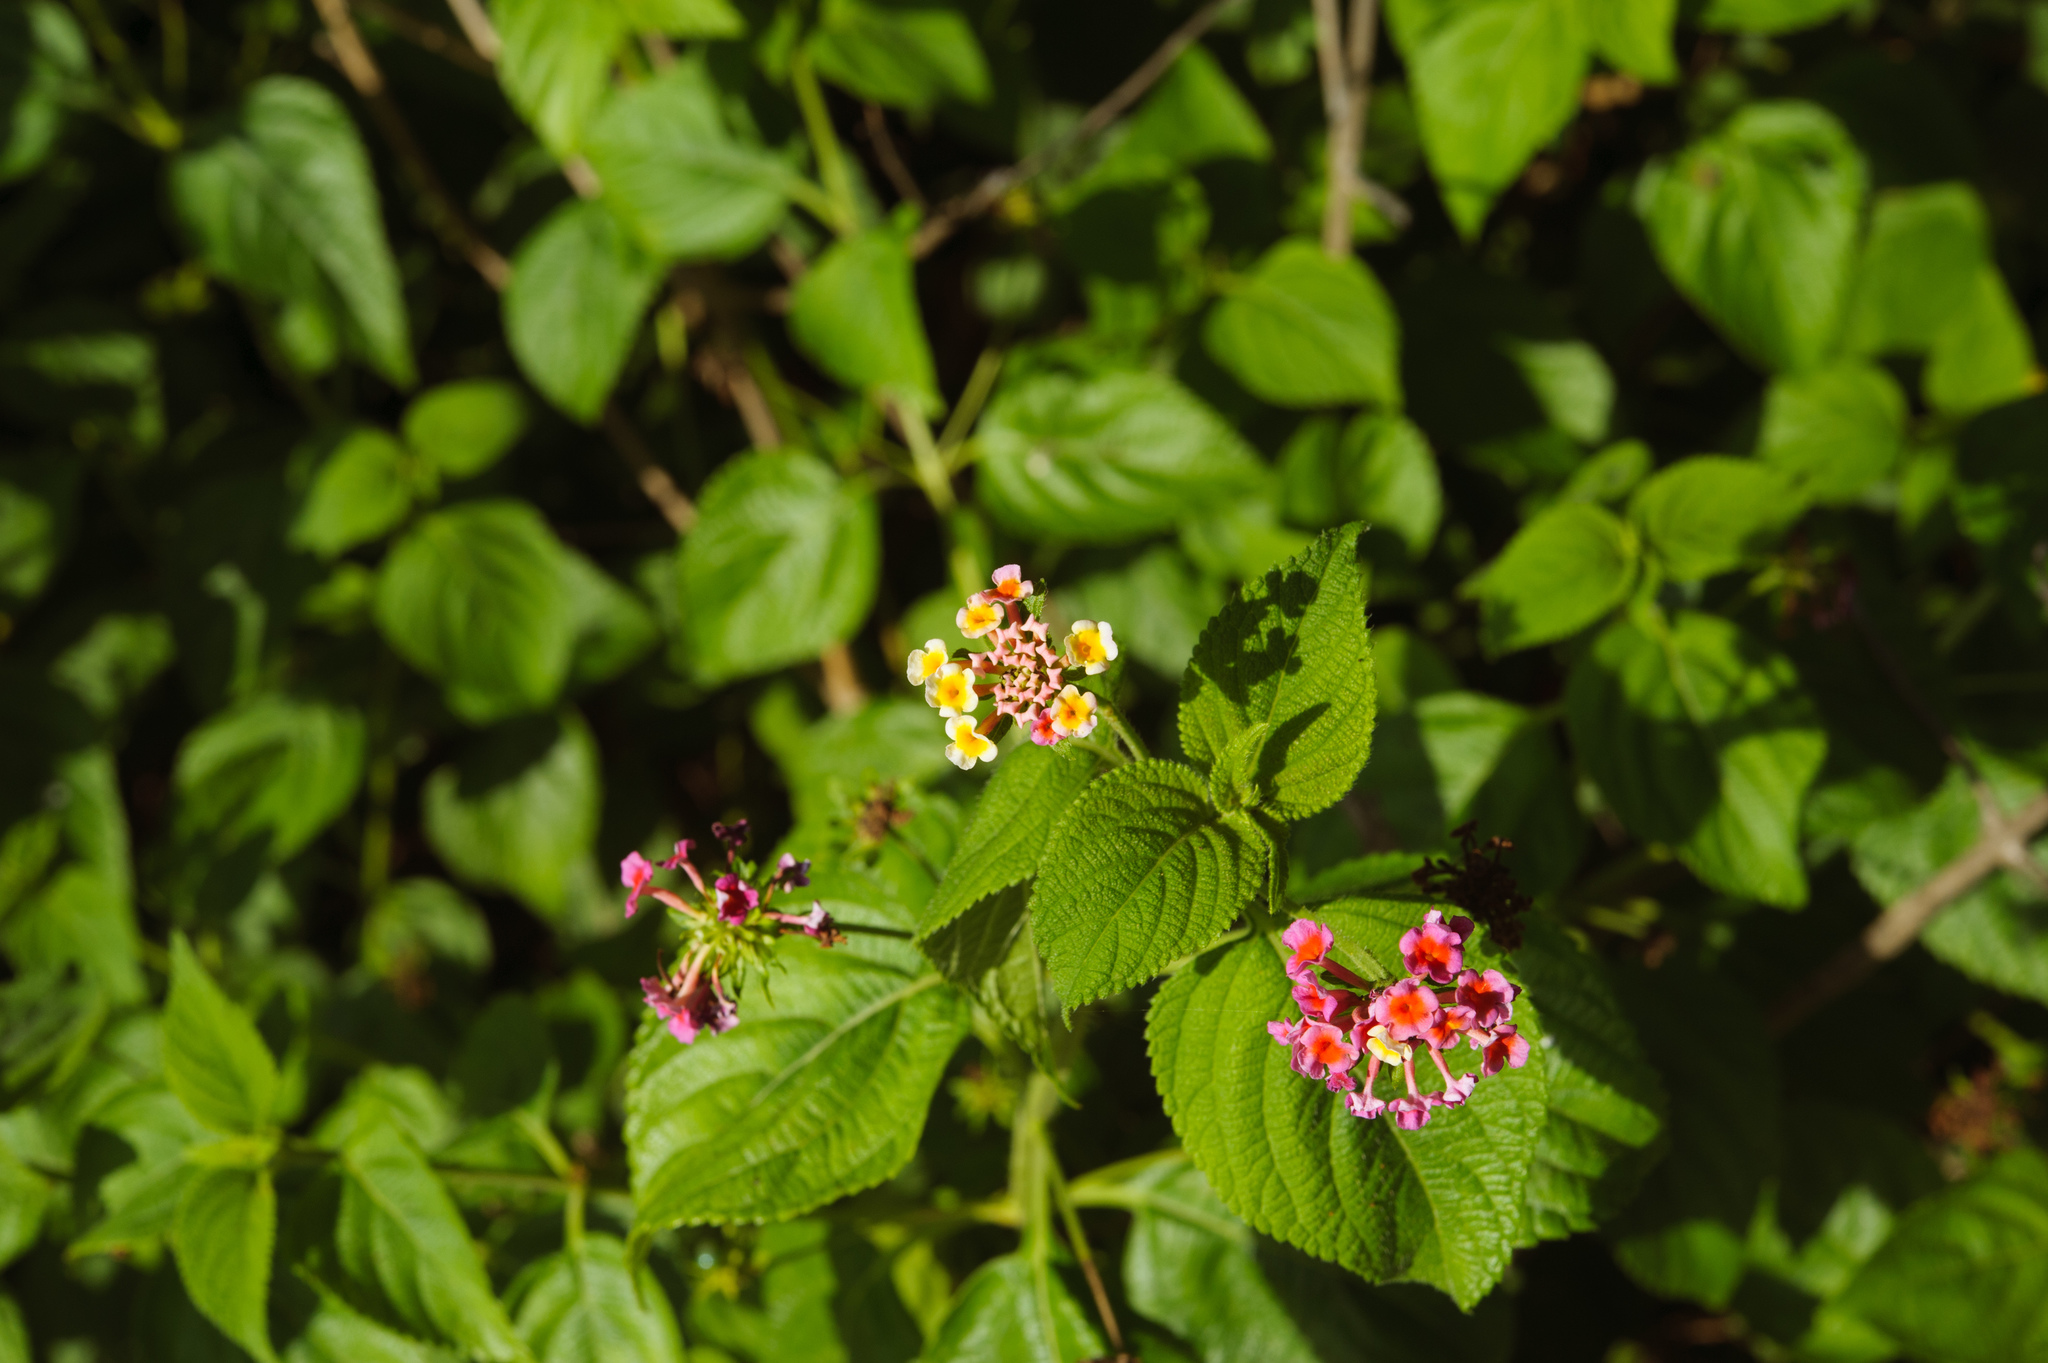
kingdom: Plantae
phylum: Tracheophyta
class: Magnoliopsida
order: Lamiales
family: Verbenaceae
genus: Lantana
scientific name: Lantana camara
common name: Lantana
